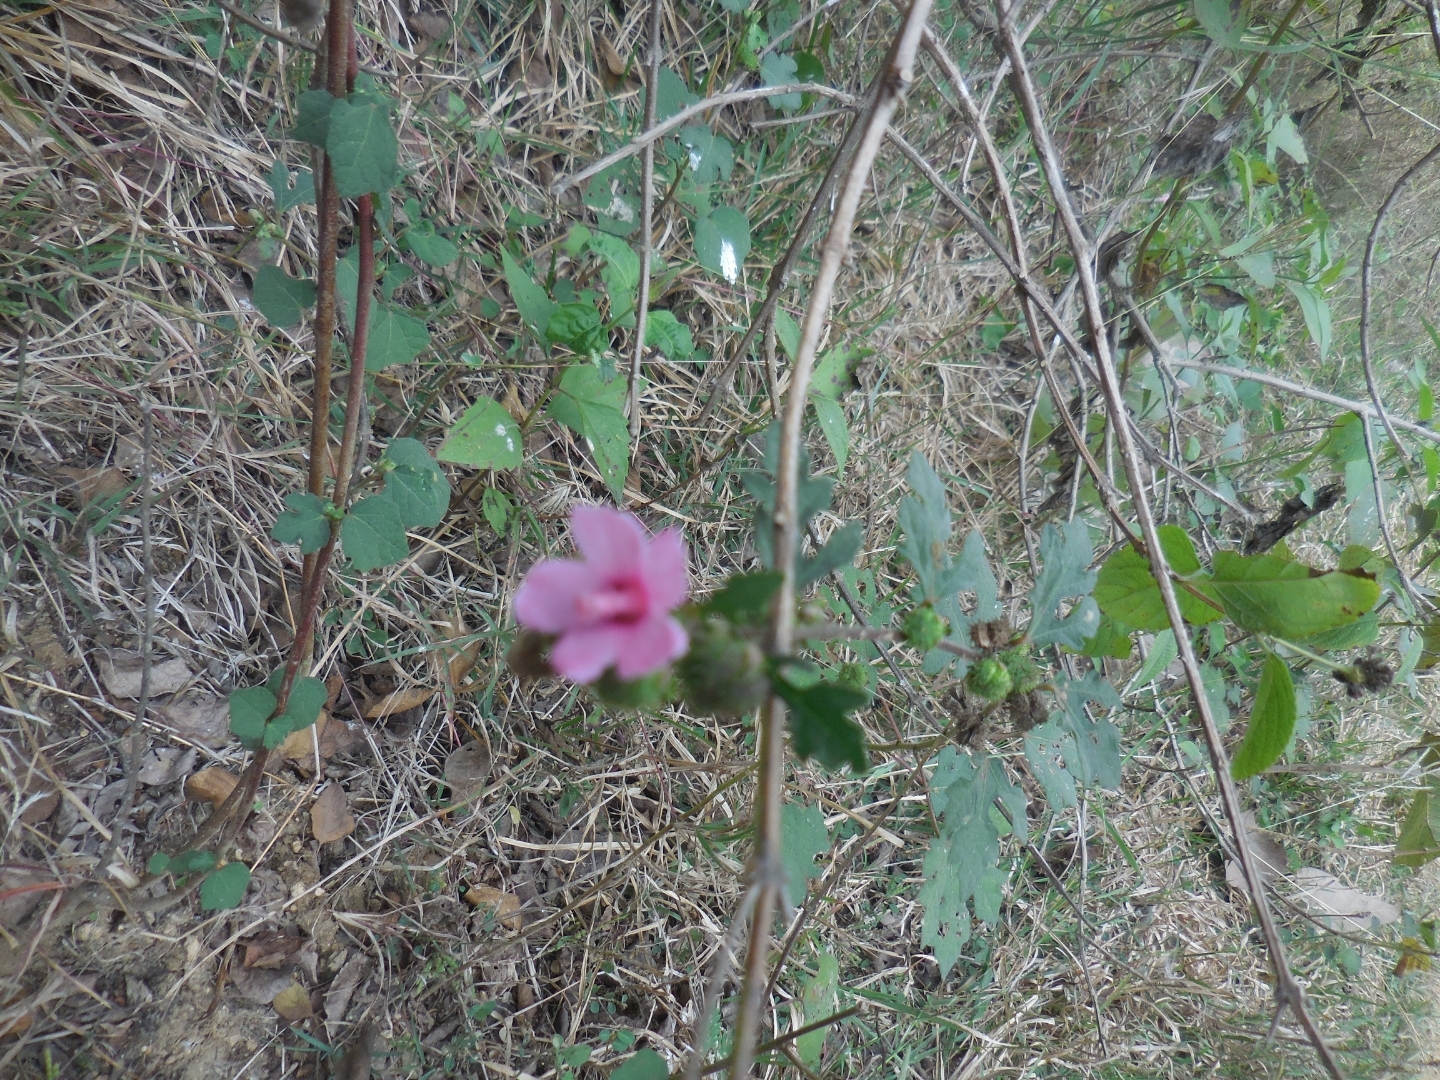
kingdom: Plantae
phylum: Tracheophyta
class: Magnoliopsida
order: Malvales
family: Malvaceae
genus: Urena
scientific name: Urena procumbens
